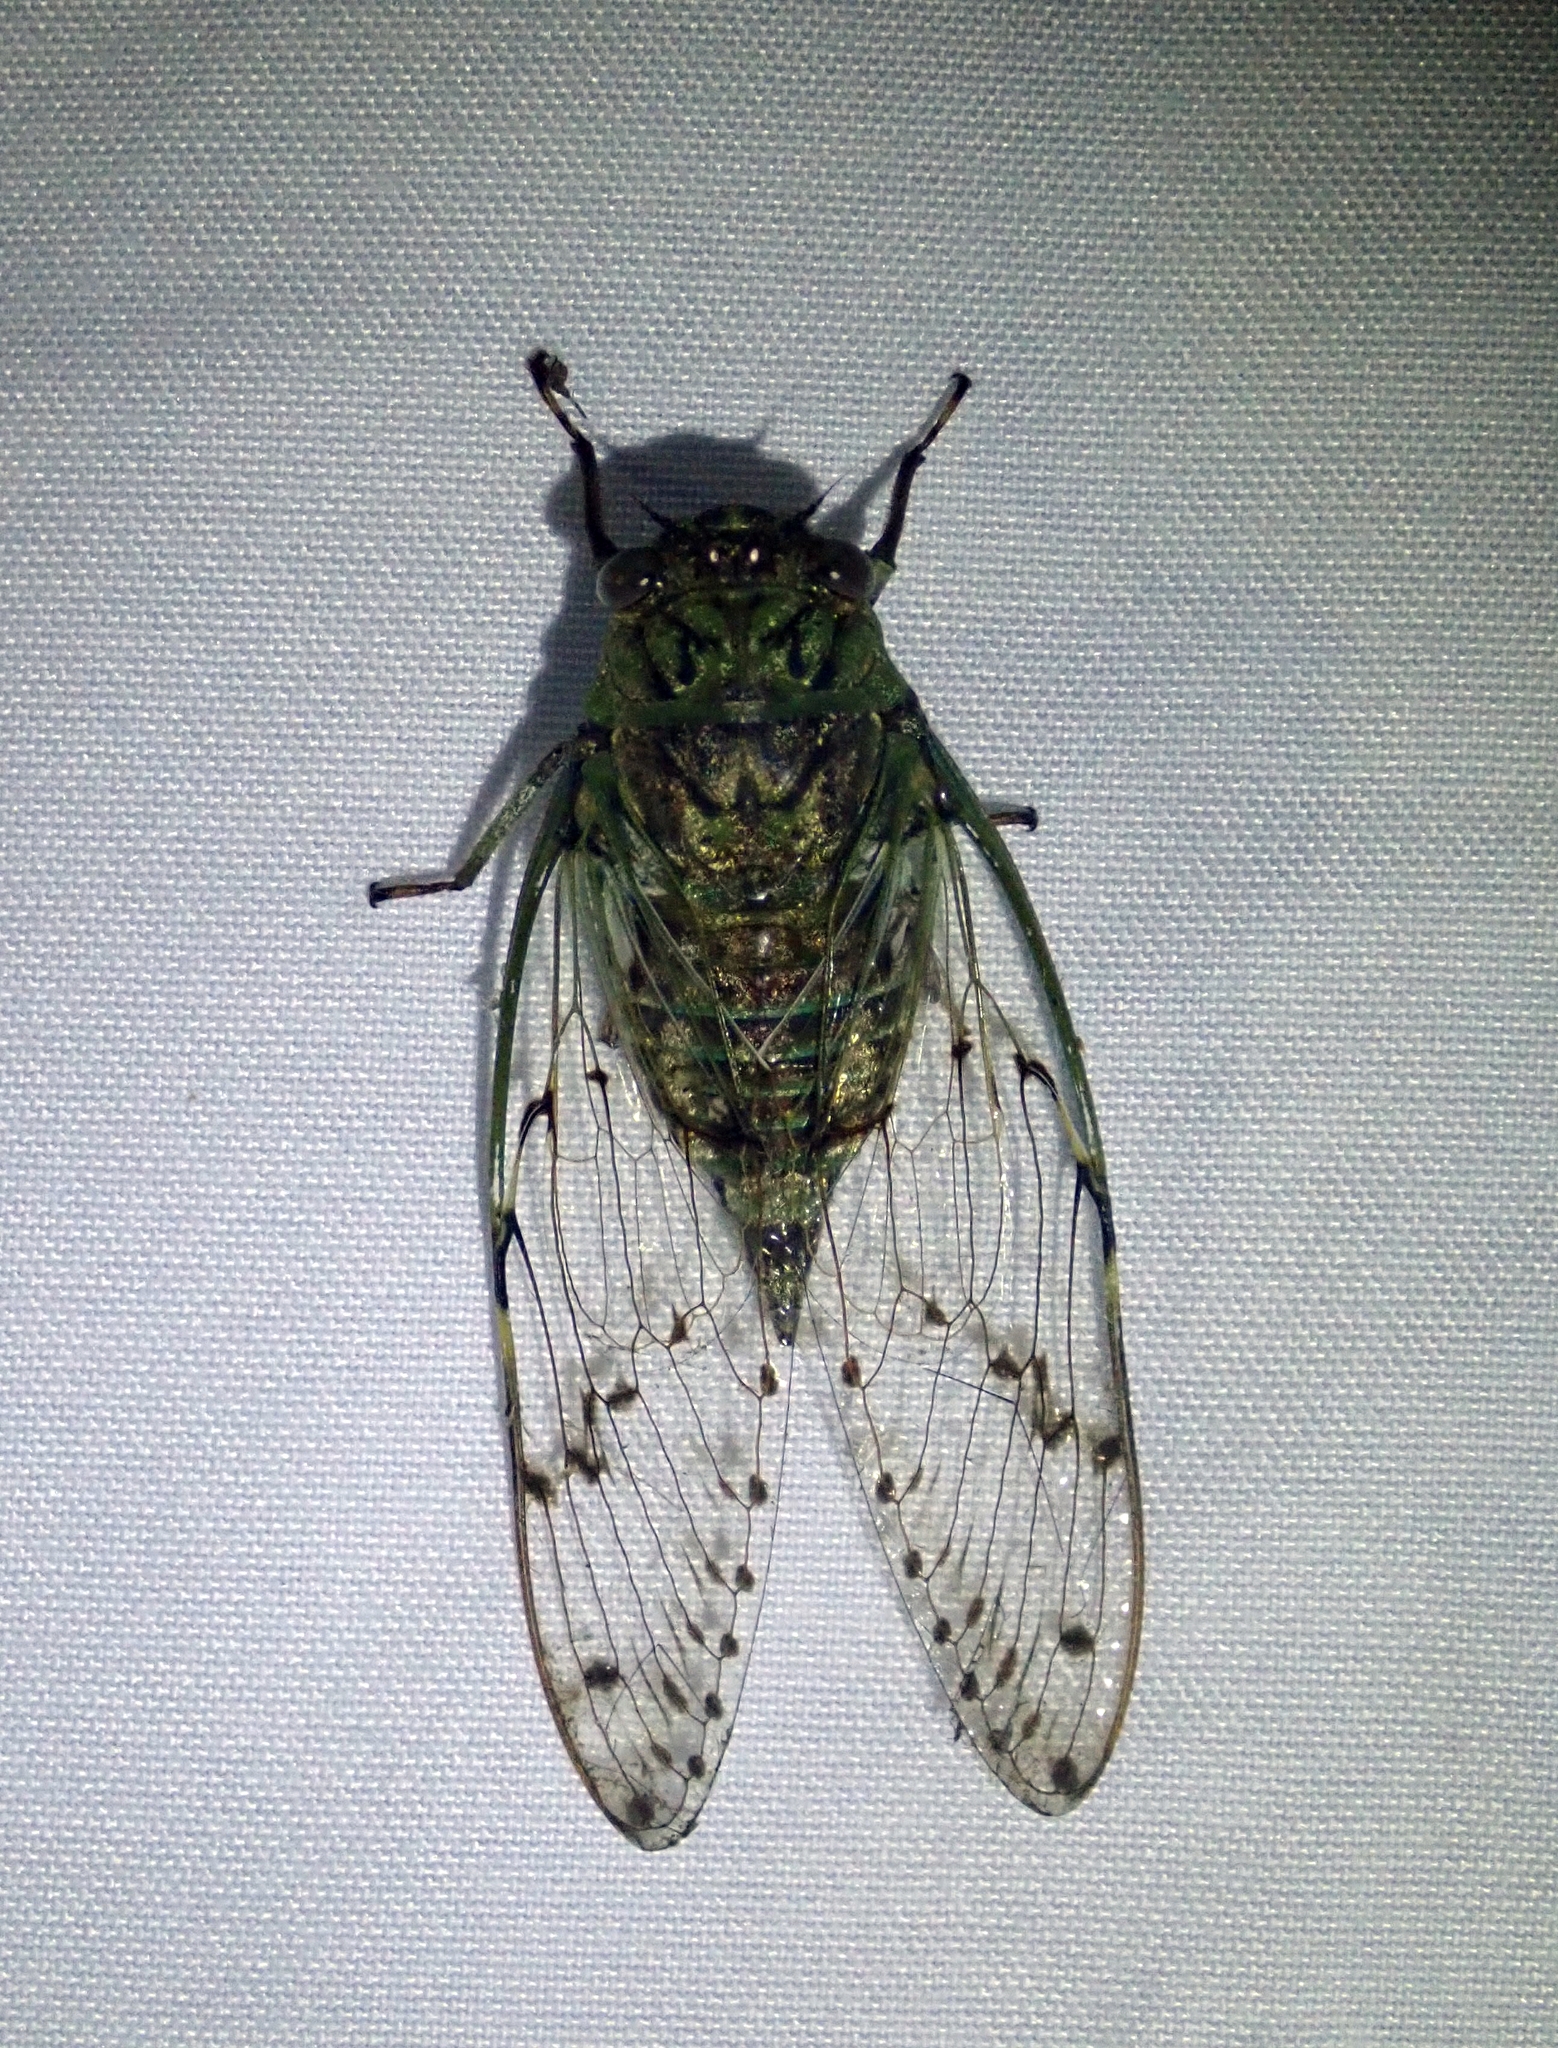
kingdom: Animalia
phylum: Arthropoda
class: Insecta
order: Hemiptera
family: Cicadidae
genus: Proarna
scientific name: Proarna sallei
